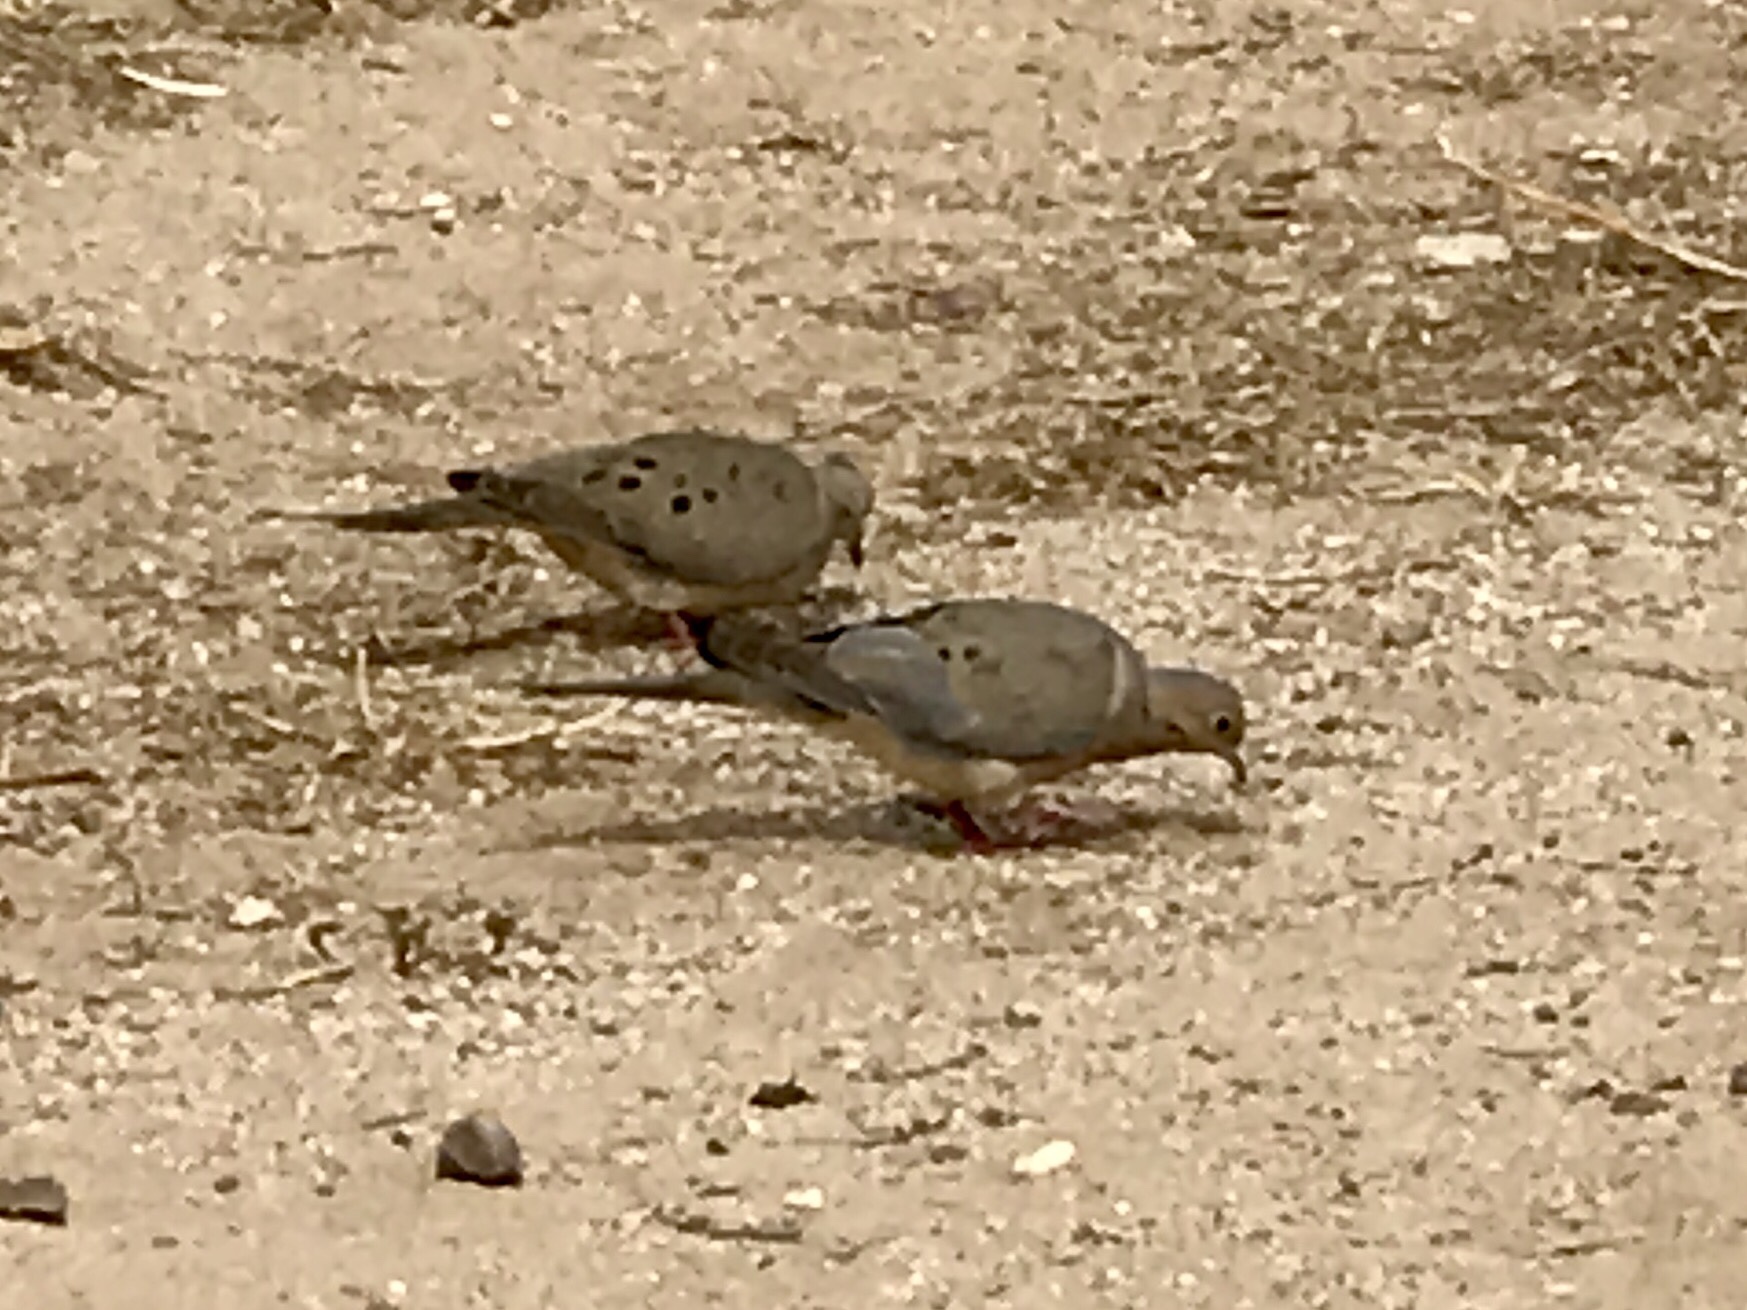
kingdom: Animalia
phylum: Chordata
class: Aves
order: Columbiformes
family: Columbidae
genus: Zenaida
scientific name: Zenaida macroura
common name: Mourning dove
